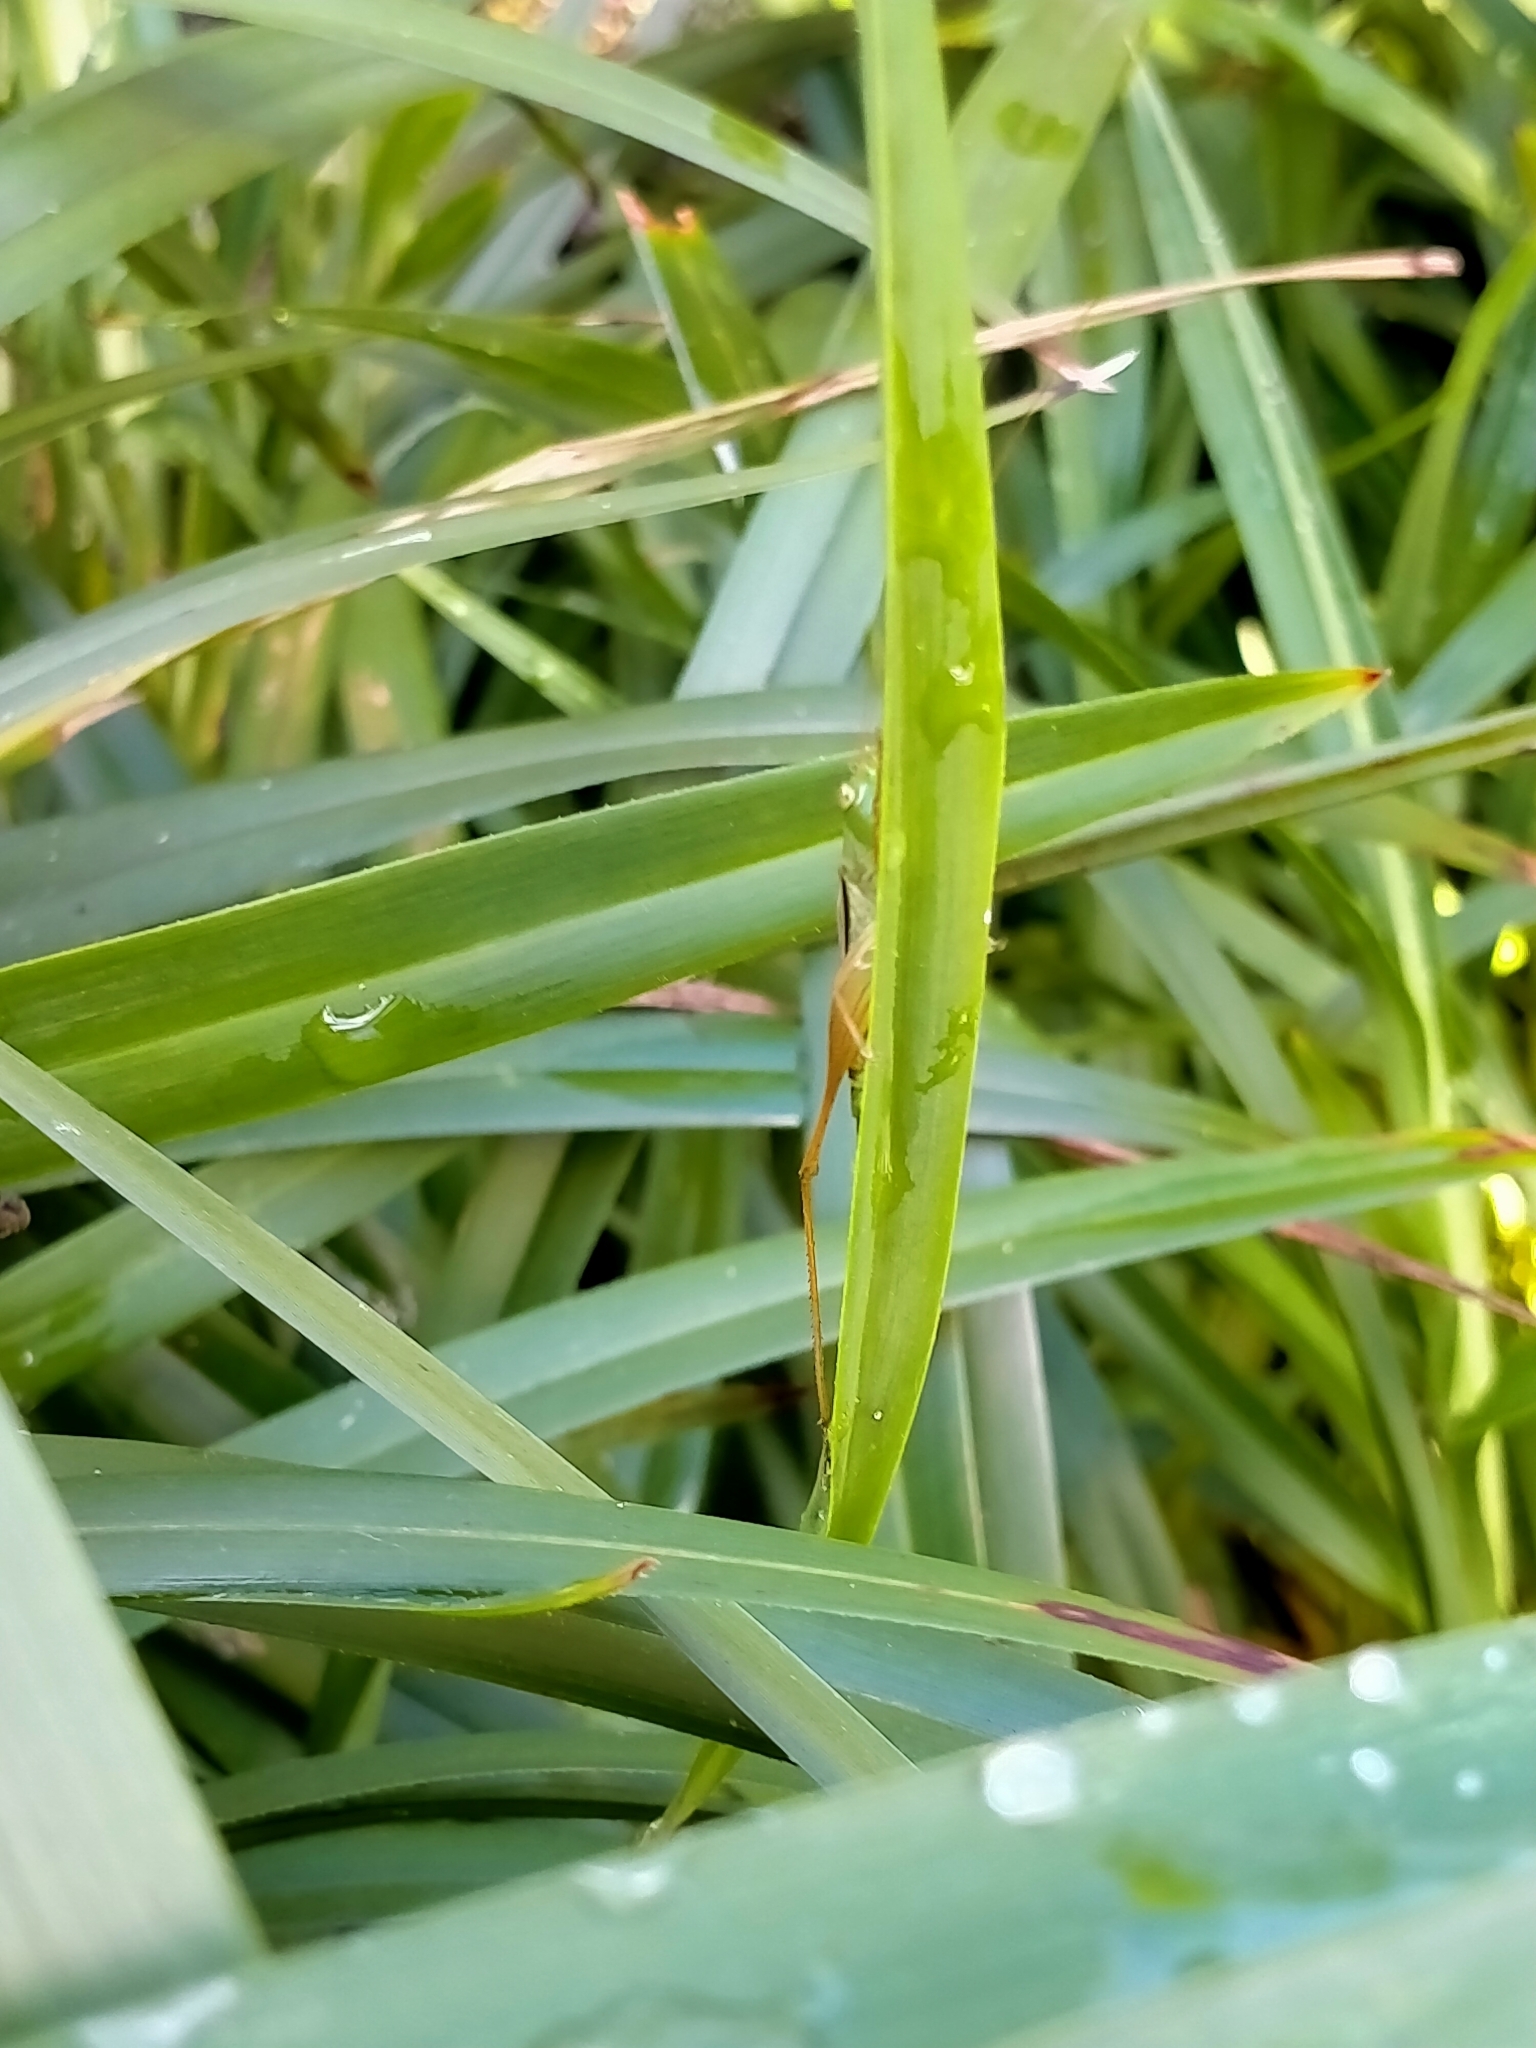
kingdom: Animalia
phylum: Arthropoda
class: Insecta
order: Orthoptera
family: Tettigoniidae
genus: Conocephalus
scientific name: Conocephalus semivittatus
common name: Blackish meadow katydid
